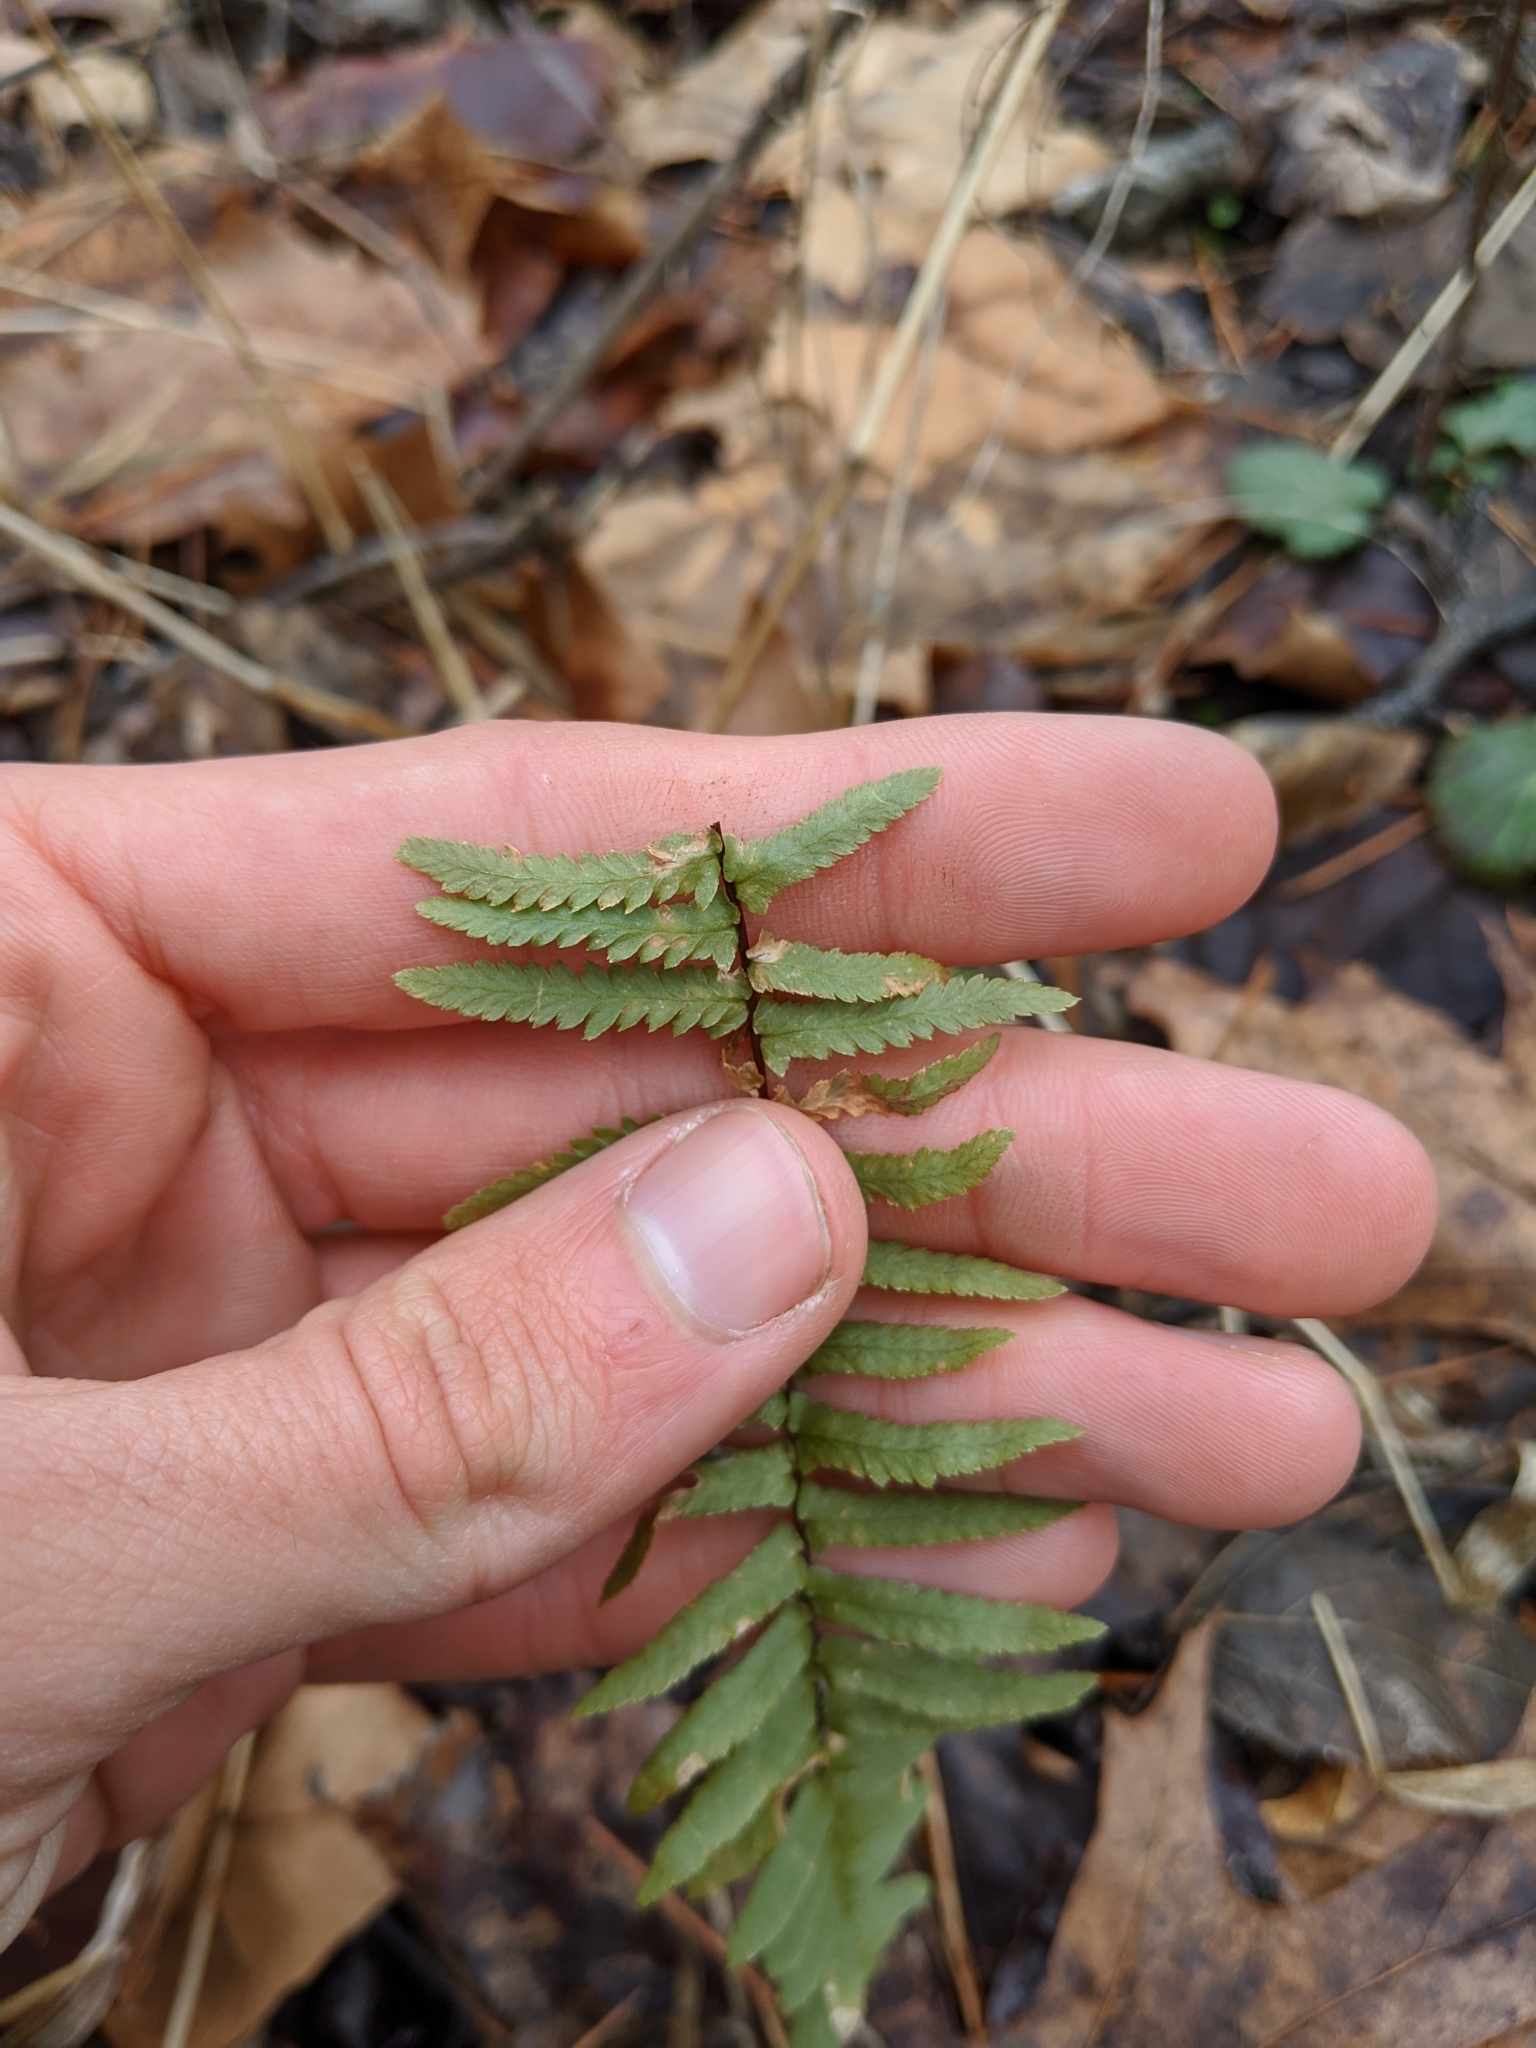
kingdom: Plantae
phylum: Tracheophyta
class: Polypodiopsida
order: Polypodiales
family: Aspleniaceae
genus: Asplenium
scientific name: Asplenium platyneuron
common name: Ebony spleenwort
